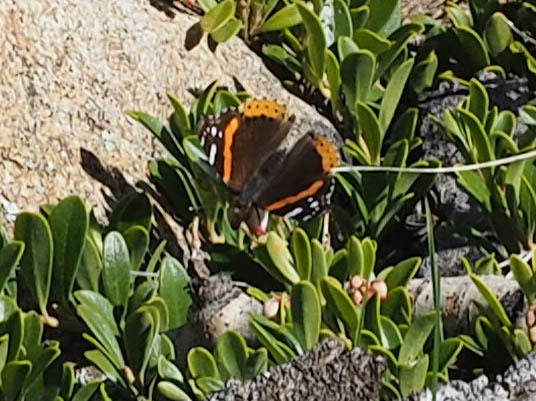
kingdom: Animalia
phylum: Arthropoda
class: Insecta
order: Lepidoptera
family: Nymphalidae
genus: Vanessa
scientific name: Vanessa atalanta
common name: Red admiral
